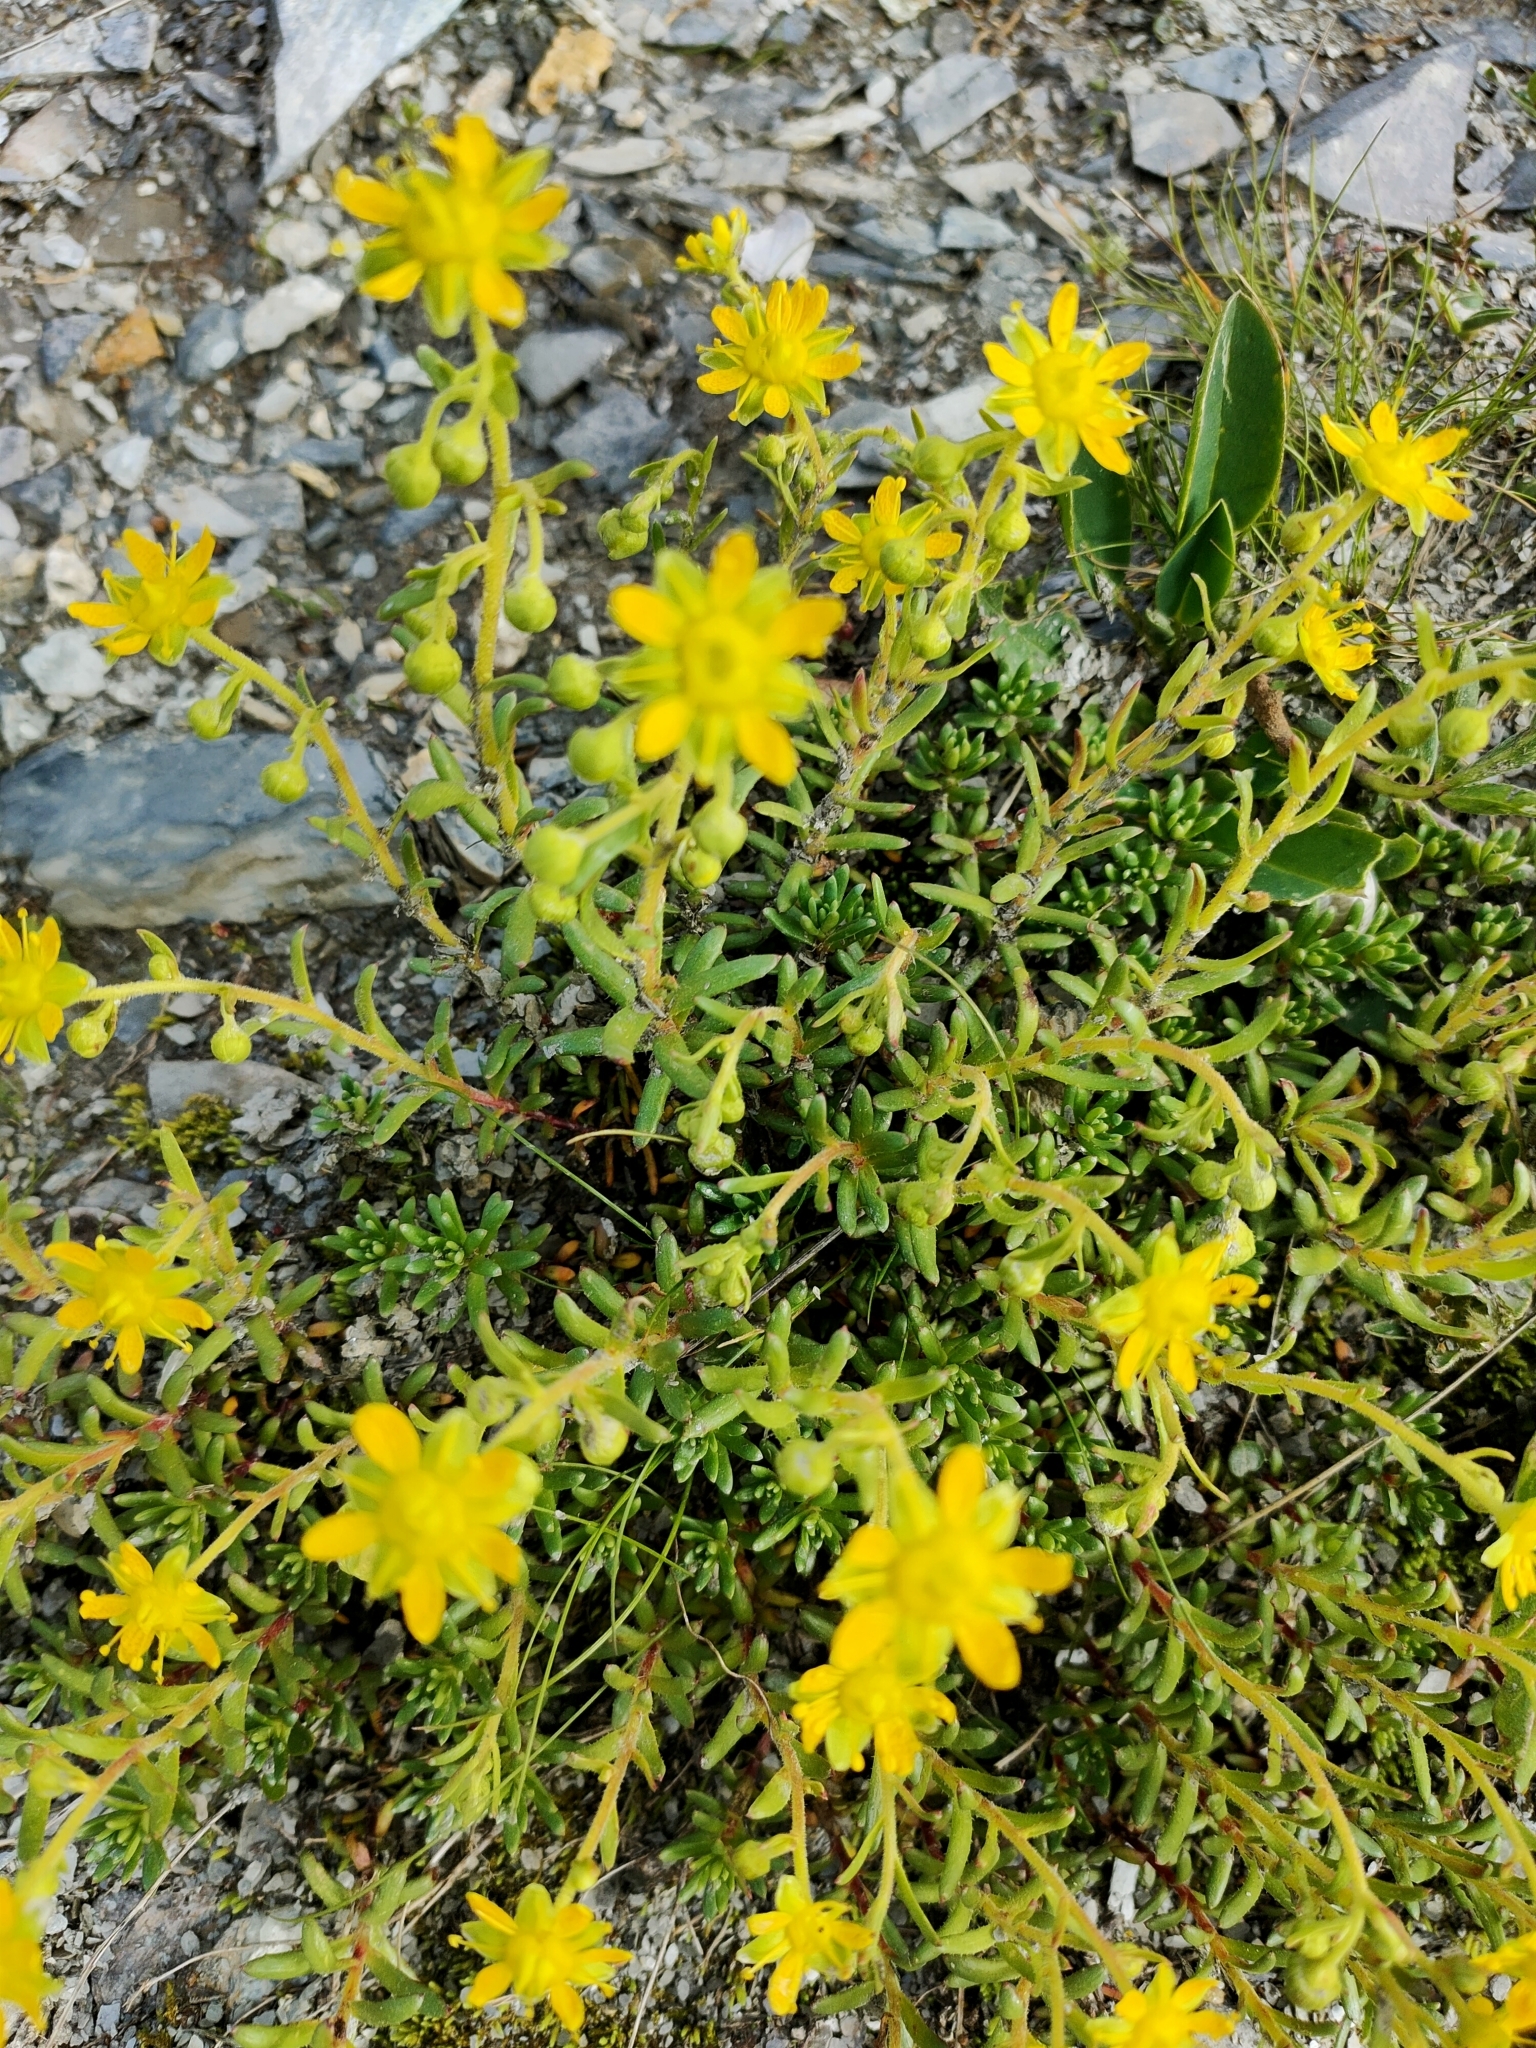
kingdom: Plantae
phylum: Tracheophyta
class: Magnoliopsida
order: Saxifragales
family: Saxifragaceae
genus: Saxifraga
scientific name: Saxifraga aizoides
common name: Yellow mountain saxifrage
